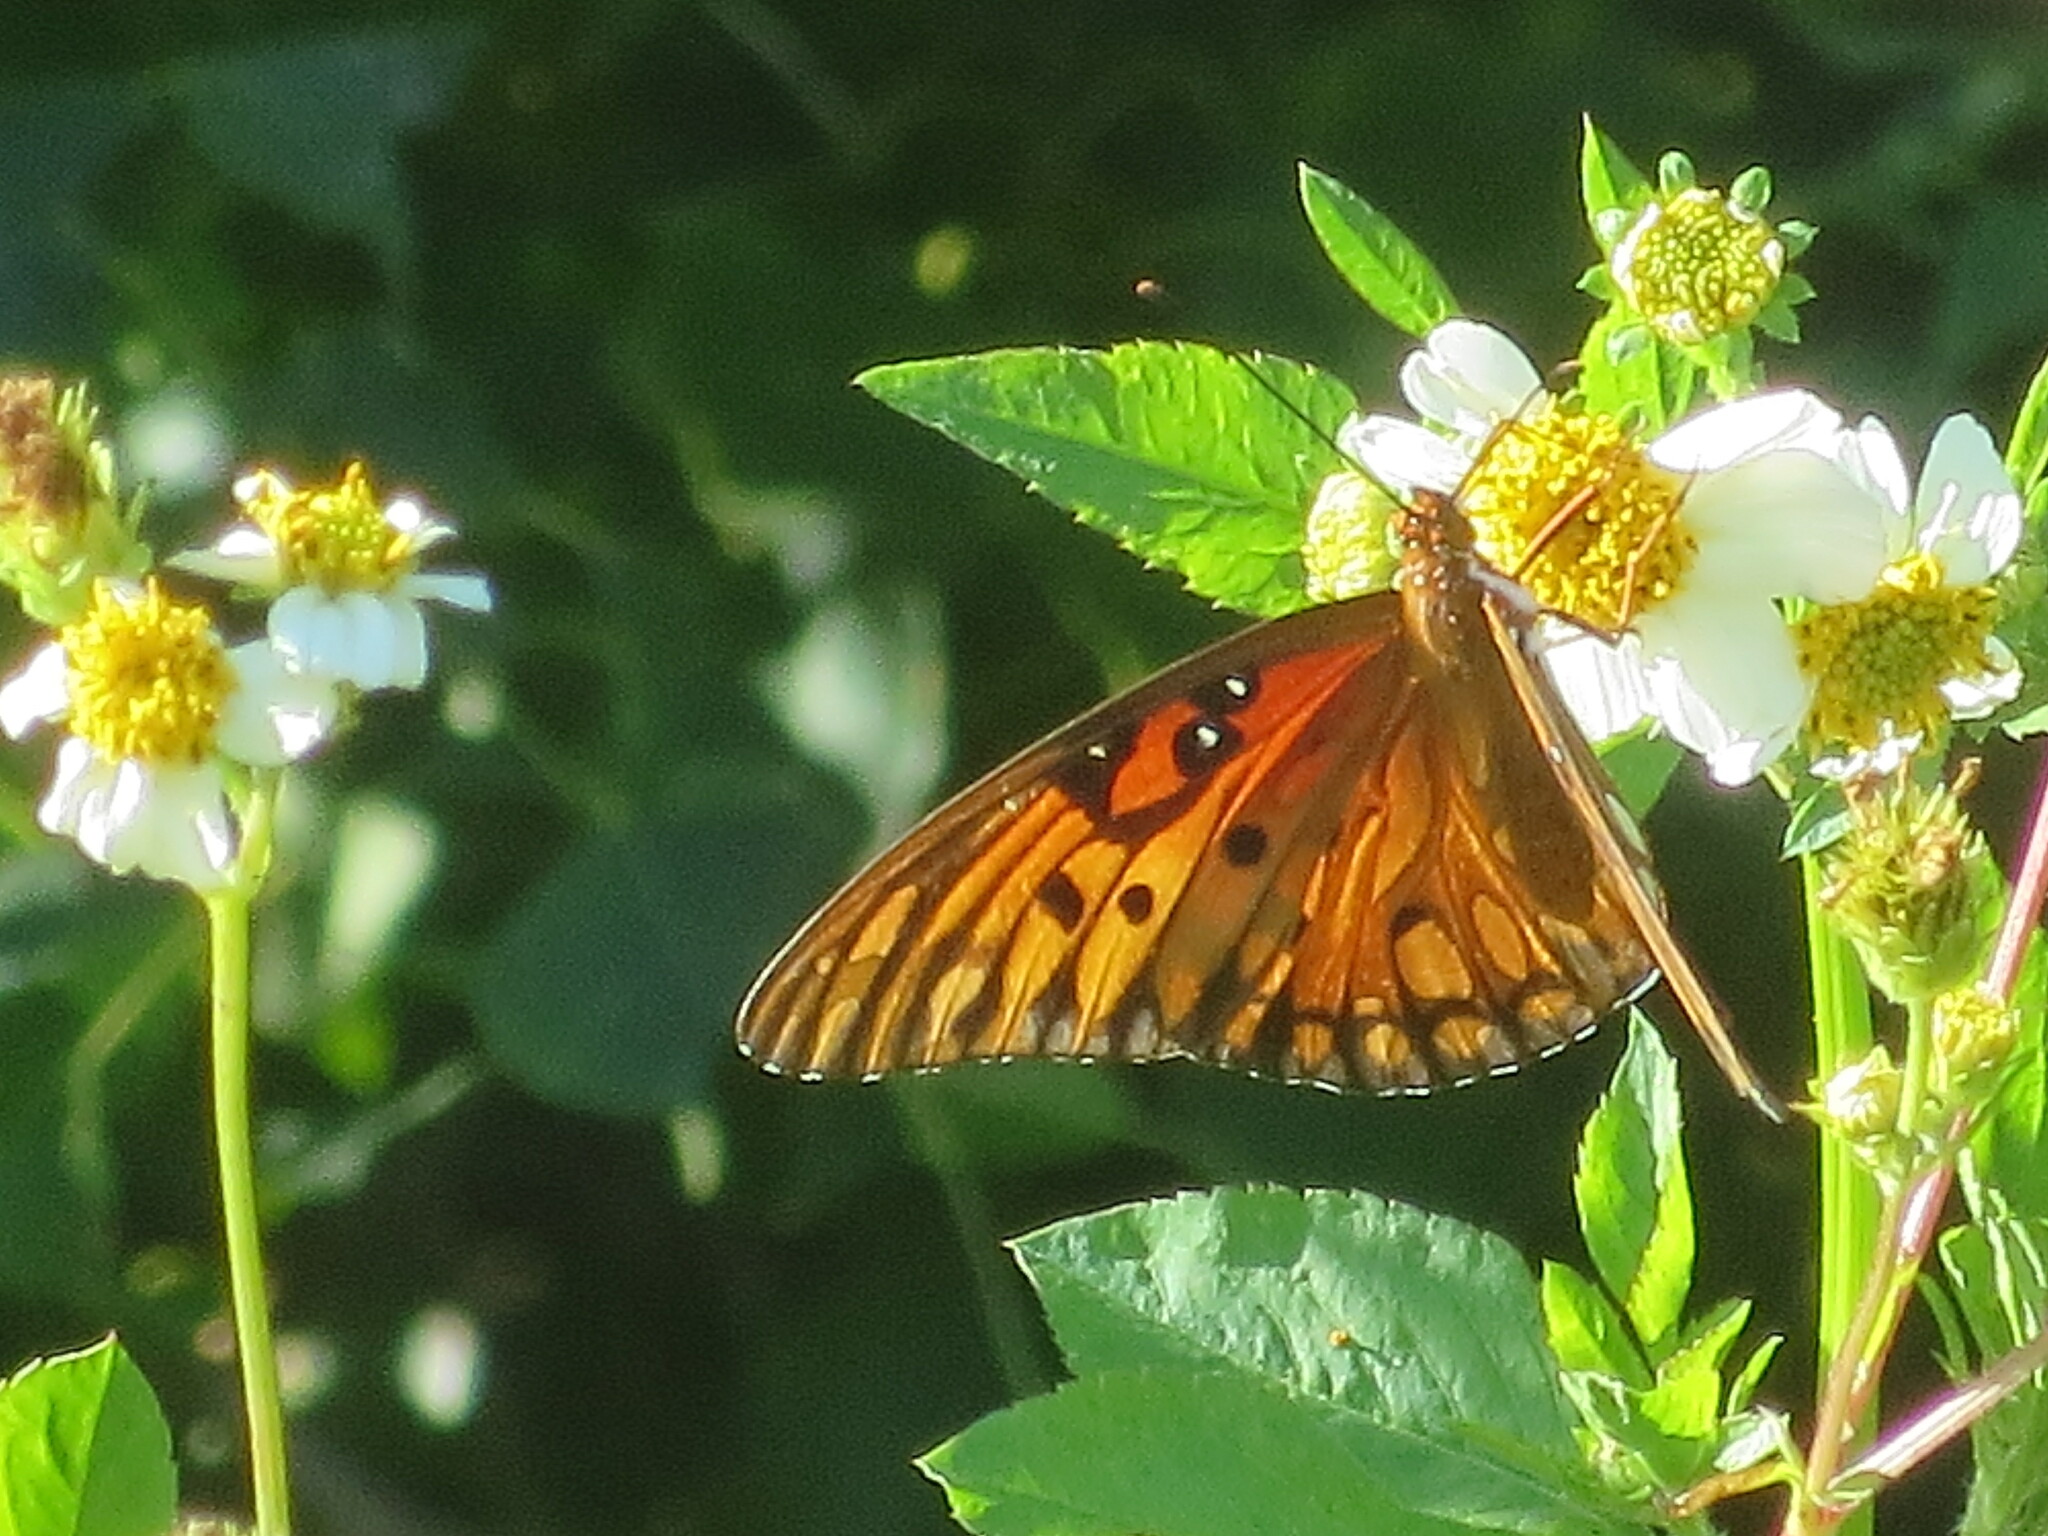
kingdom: Animalia
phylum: Arthropoda
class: Insecta
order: Lepidoptera
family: Nymphalidae
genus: Dione
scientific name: Dione vanillae
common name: Gulf fritillary
